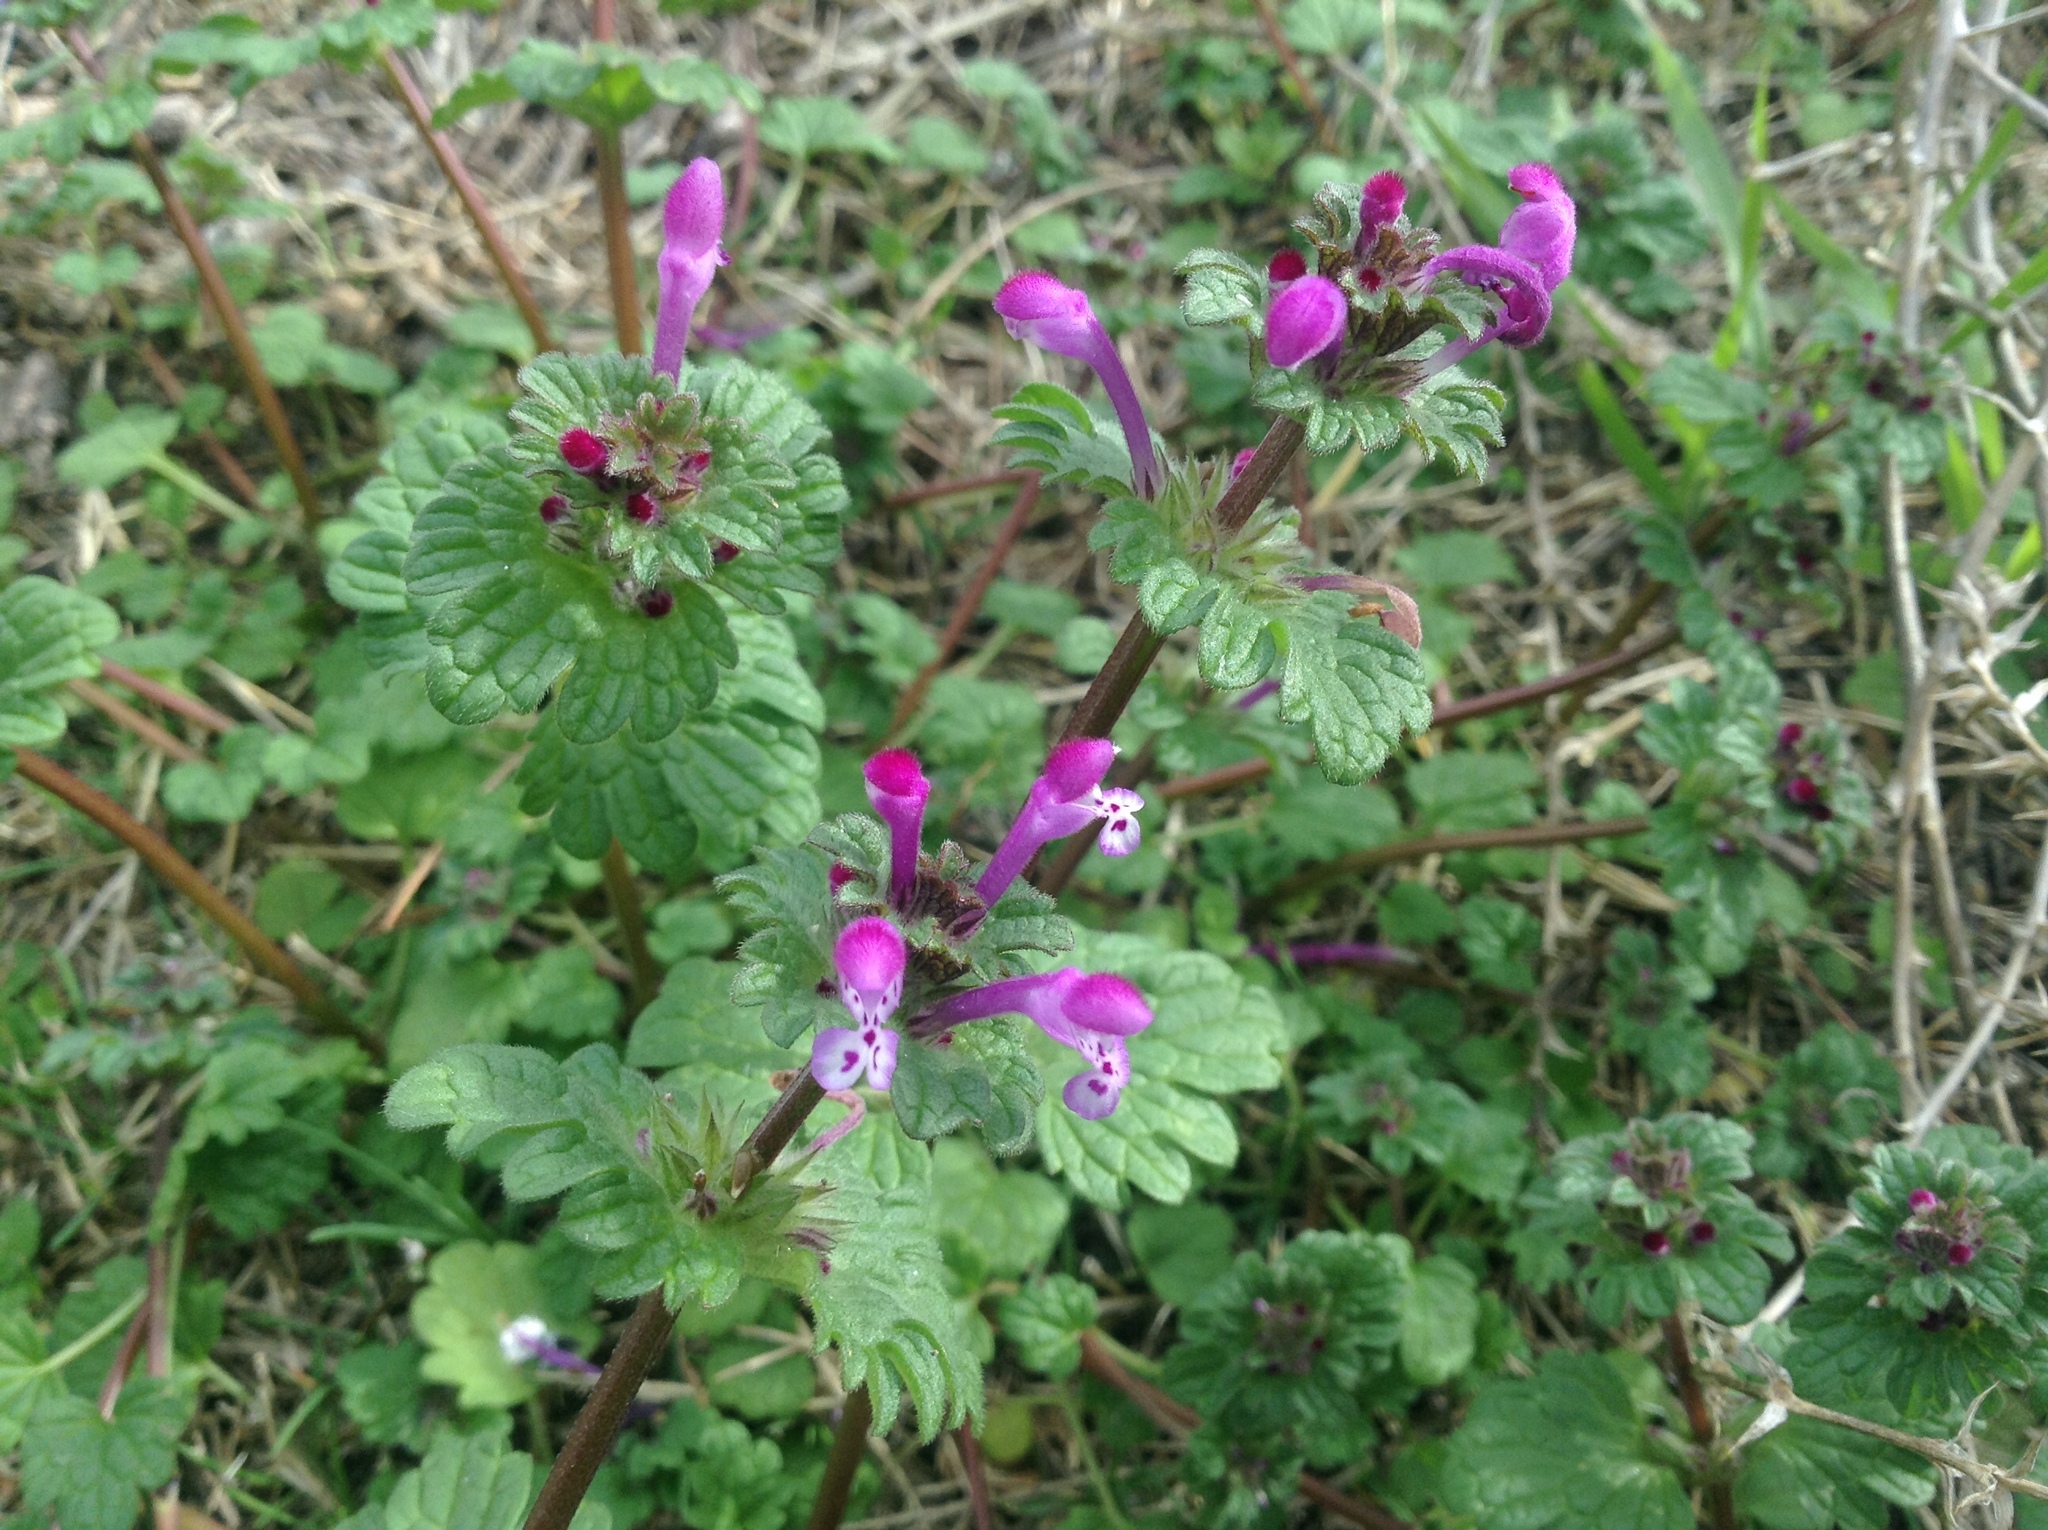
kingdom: Plantae
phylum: Tracheophyta
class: Magnoliopsida
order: Lamiales
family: Lamiaceae
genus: Lamium
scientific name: Lamium amplexicaule
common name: Henbit dead-nettle
